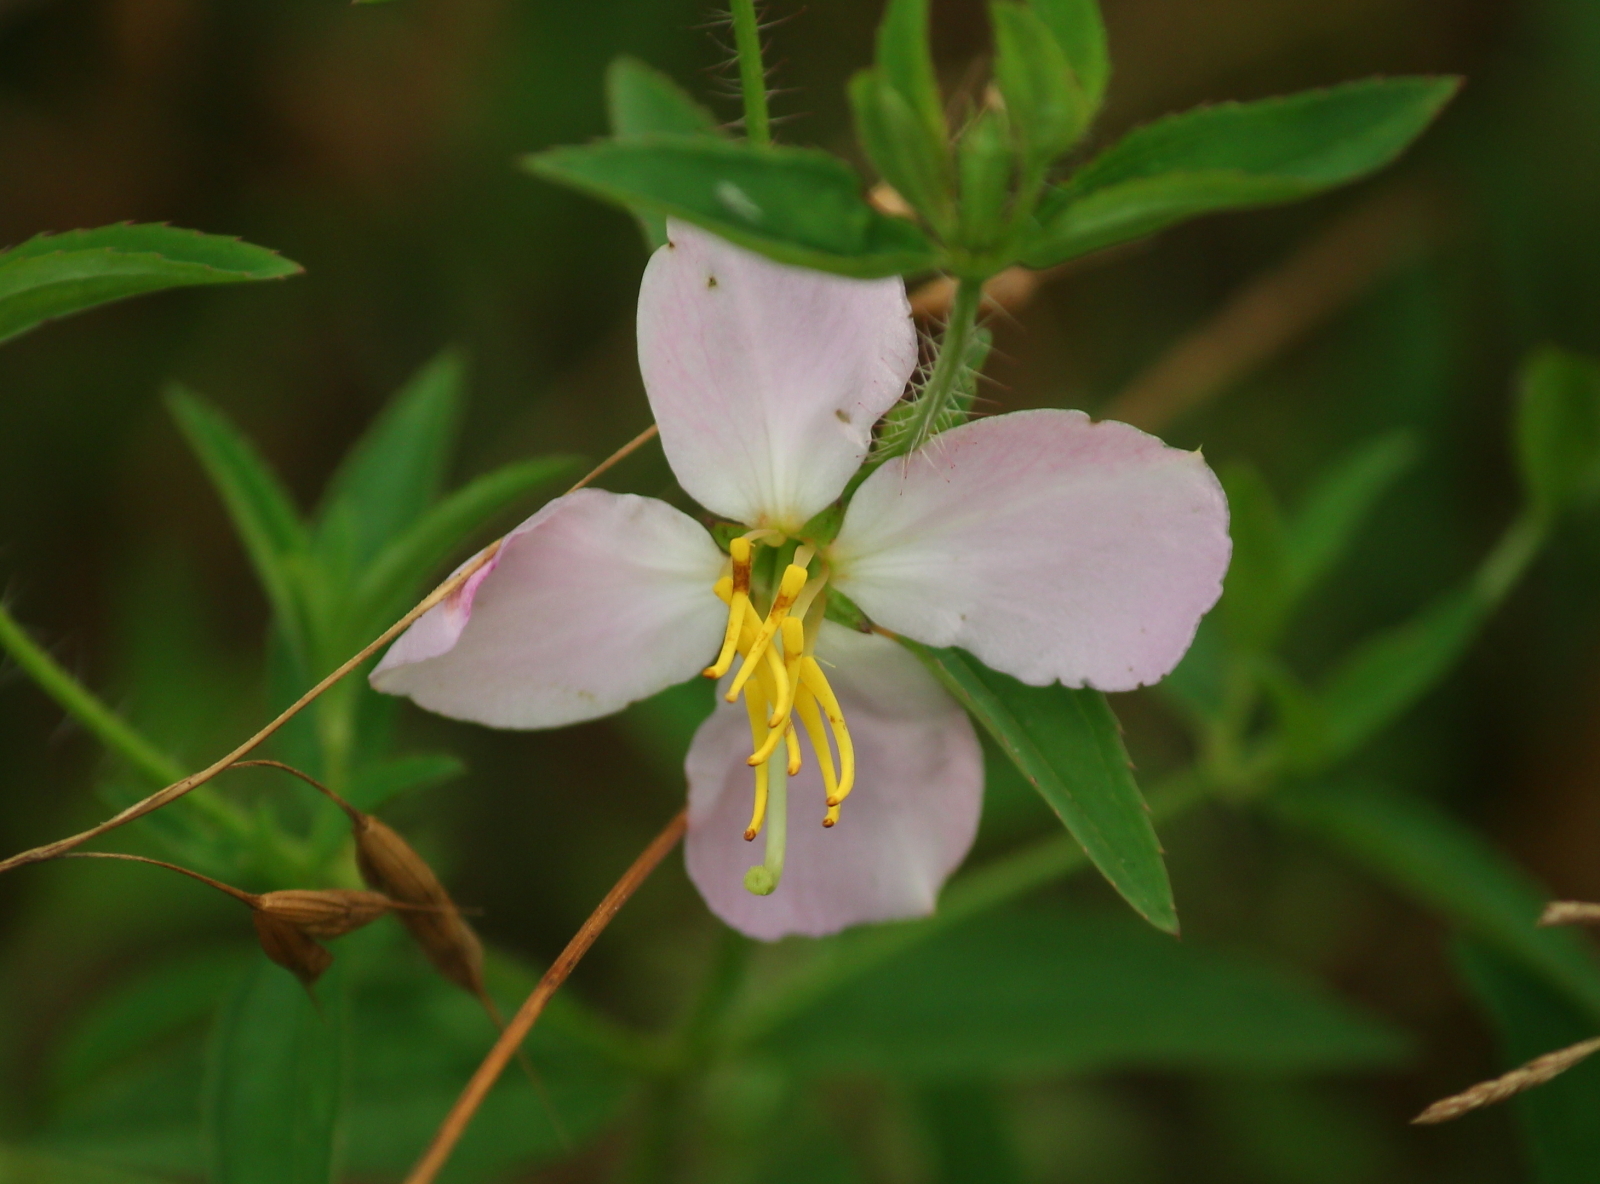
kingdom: Plantae
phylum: Tracheophyta
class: Magnoliopsida
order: Myrtales
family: Melastomataceae
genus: Rhexia
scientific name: Rhexia mariana
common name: Dull meadow-pitcher
